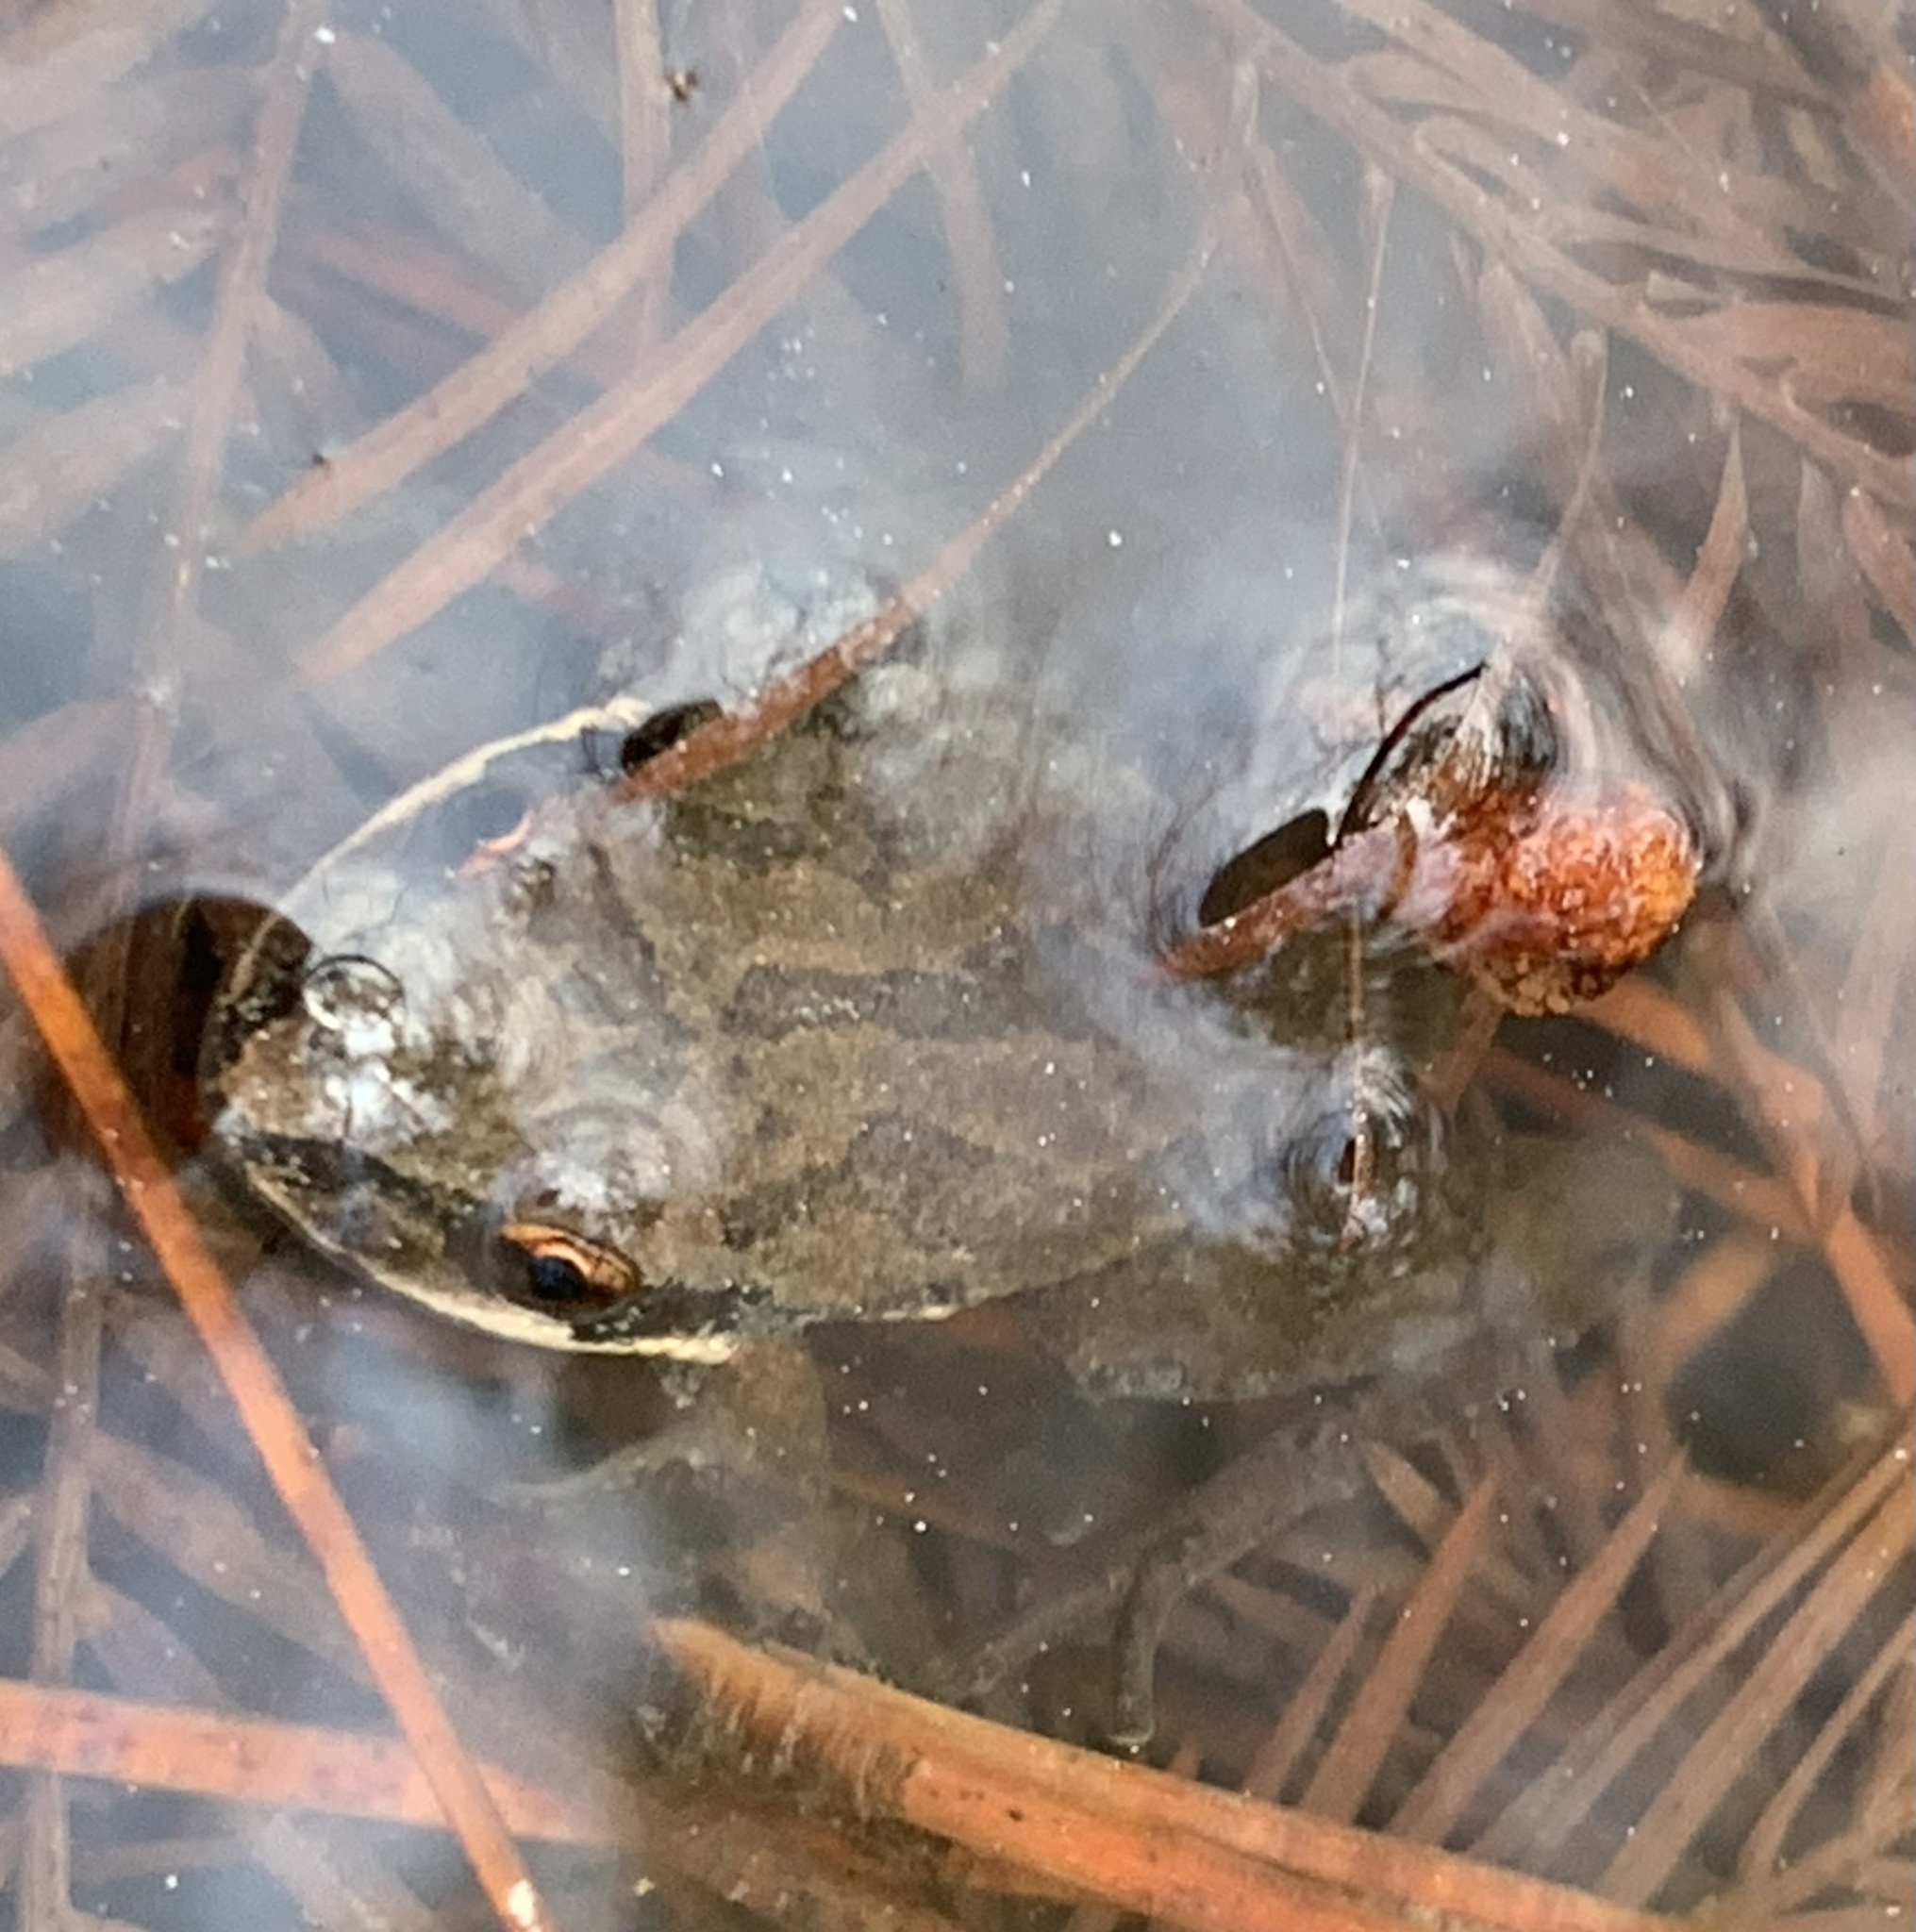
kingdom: Animalia
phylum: Chordata
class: Amphibia
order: Anura
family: Hylidae
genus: Pseudacris
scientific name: Pseudacris feriarum
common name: Upland chorus frog
